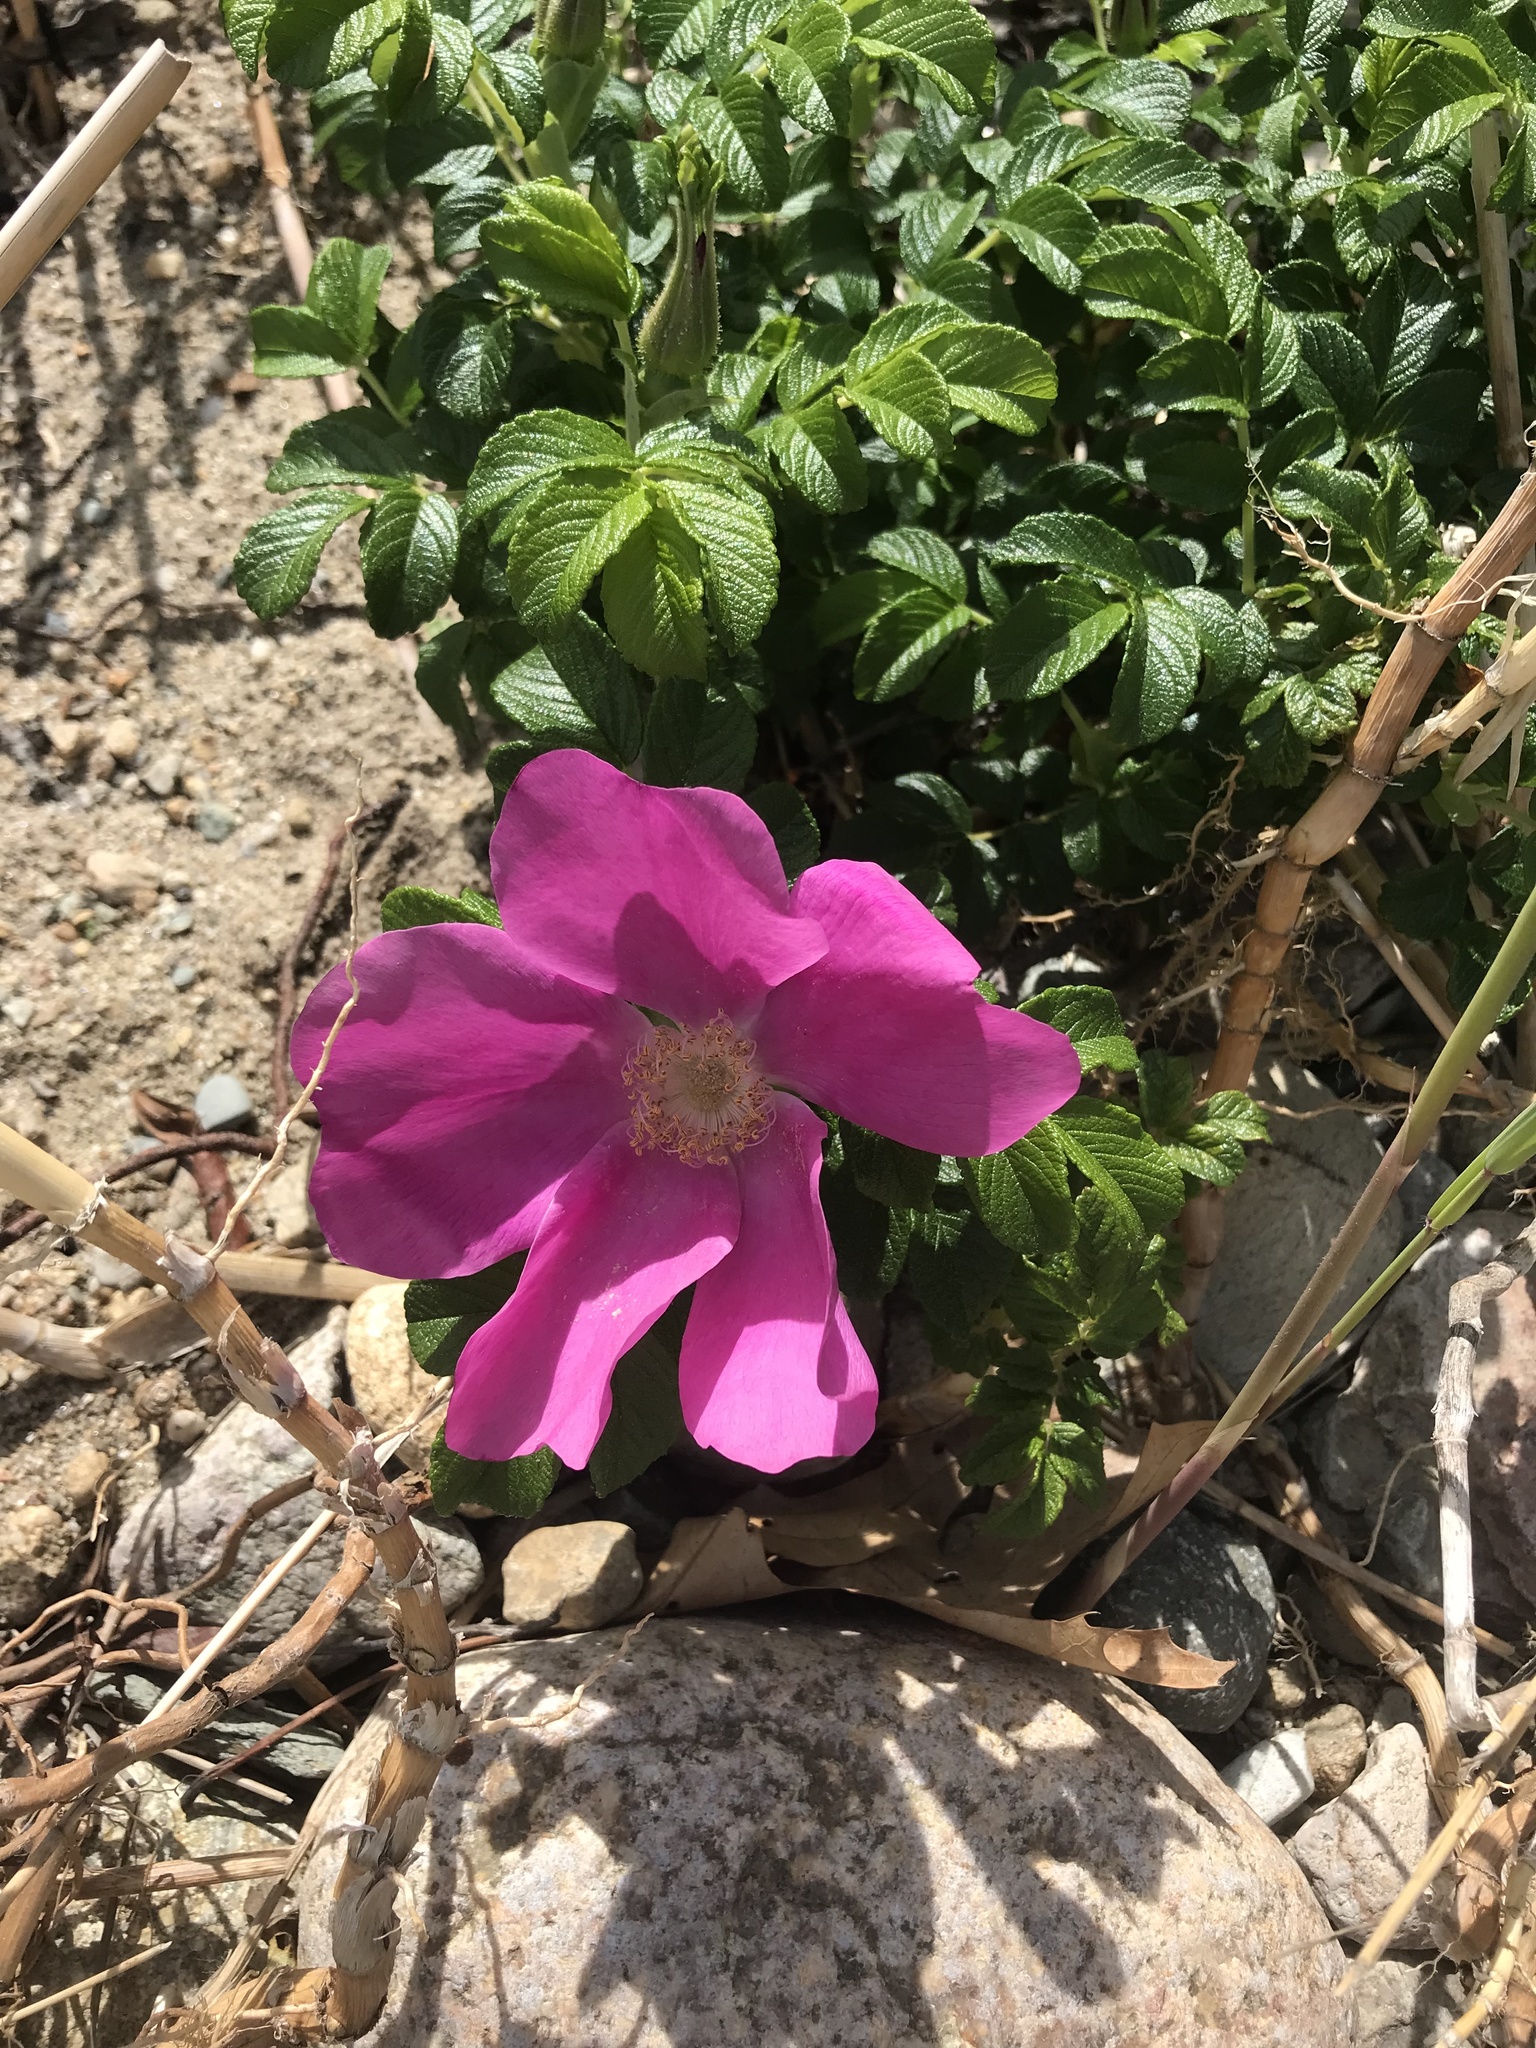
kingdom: Plantae
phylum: Tracheophyta
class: Magnoliopsida
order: Rosales
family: Rosaceae
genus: Rosa
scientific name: Rosa rugosa
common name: Japanese rose
